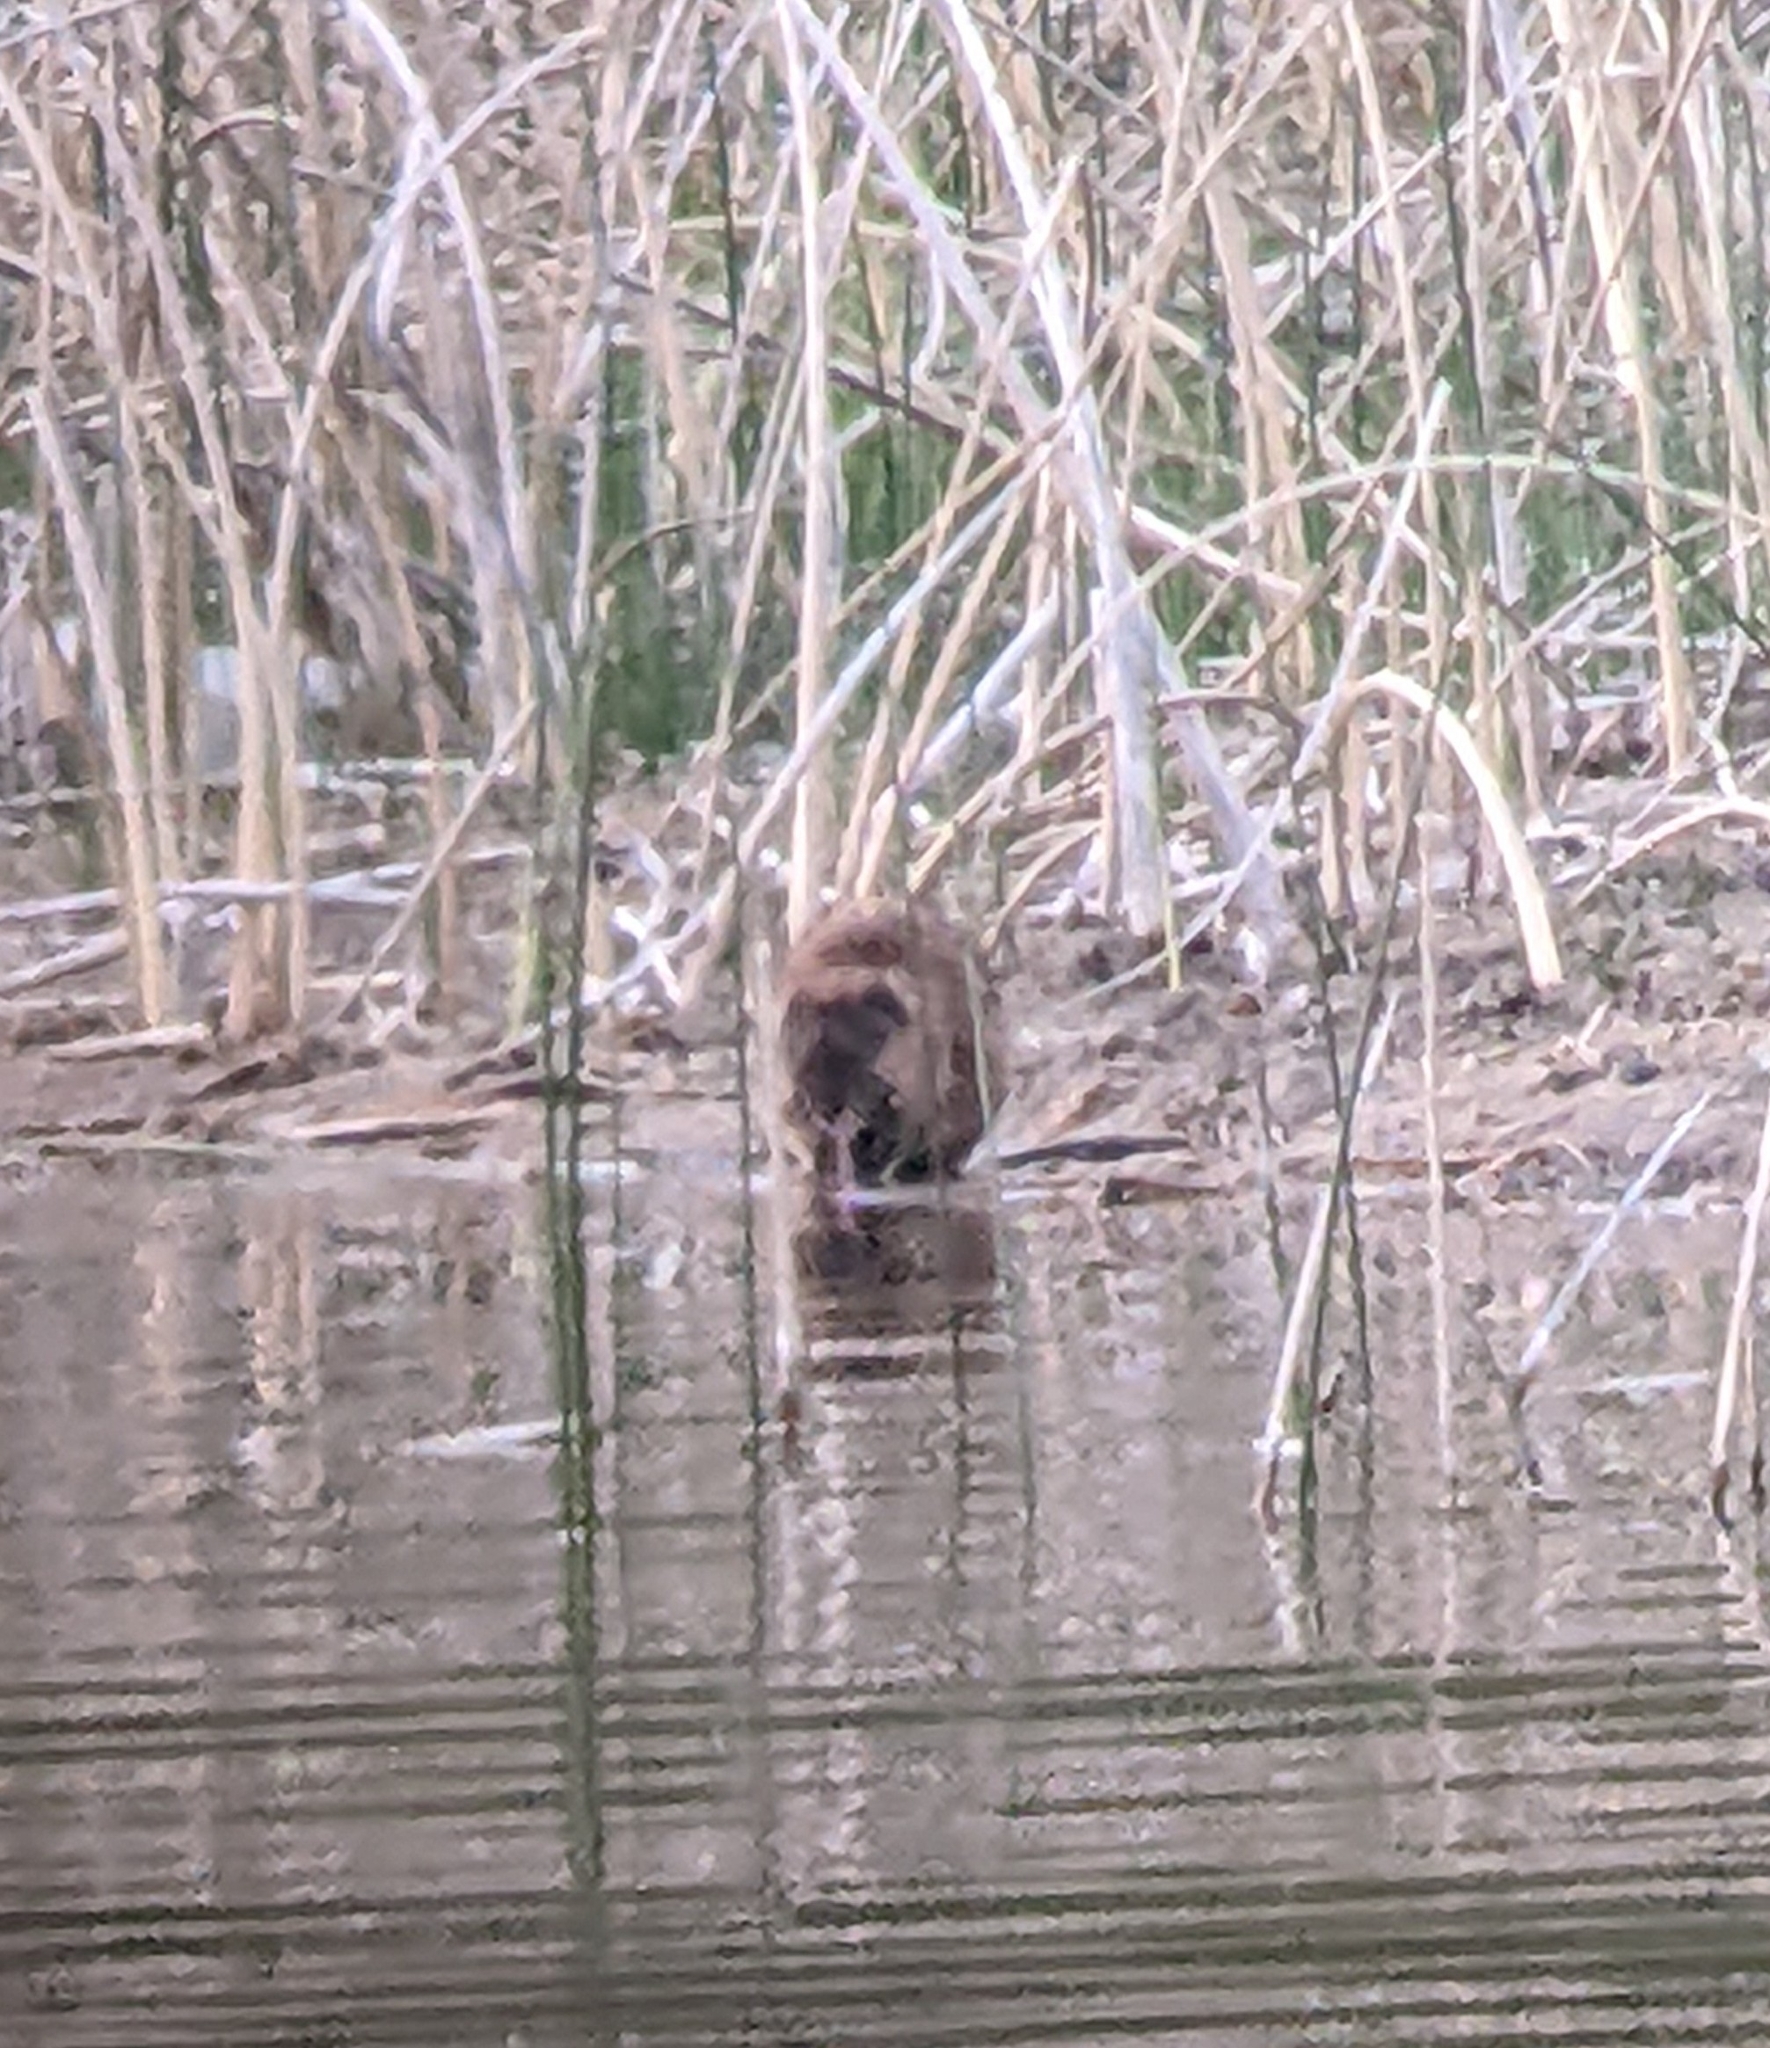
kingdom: Animalia
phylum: Chordata
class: Mammalia
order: Rodentia
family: Cricetidae
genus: Ondatra
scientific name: Ondatra zibethicus
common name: Muskrat
